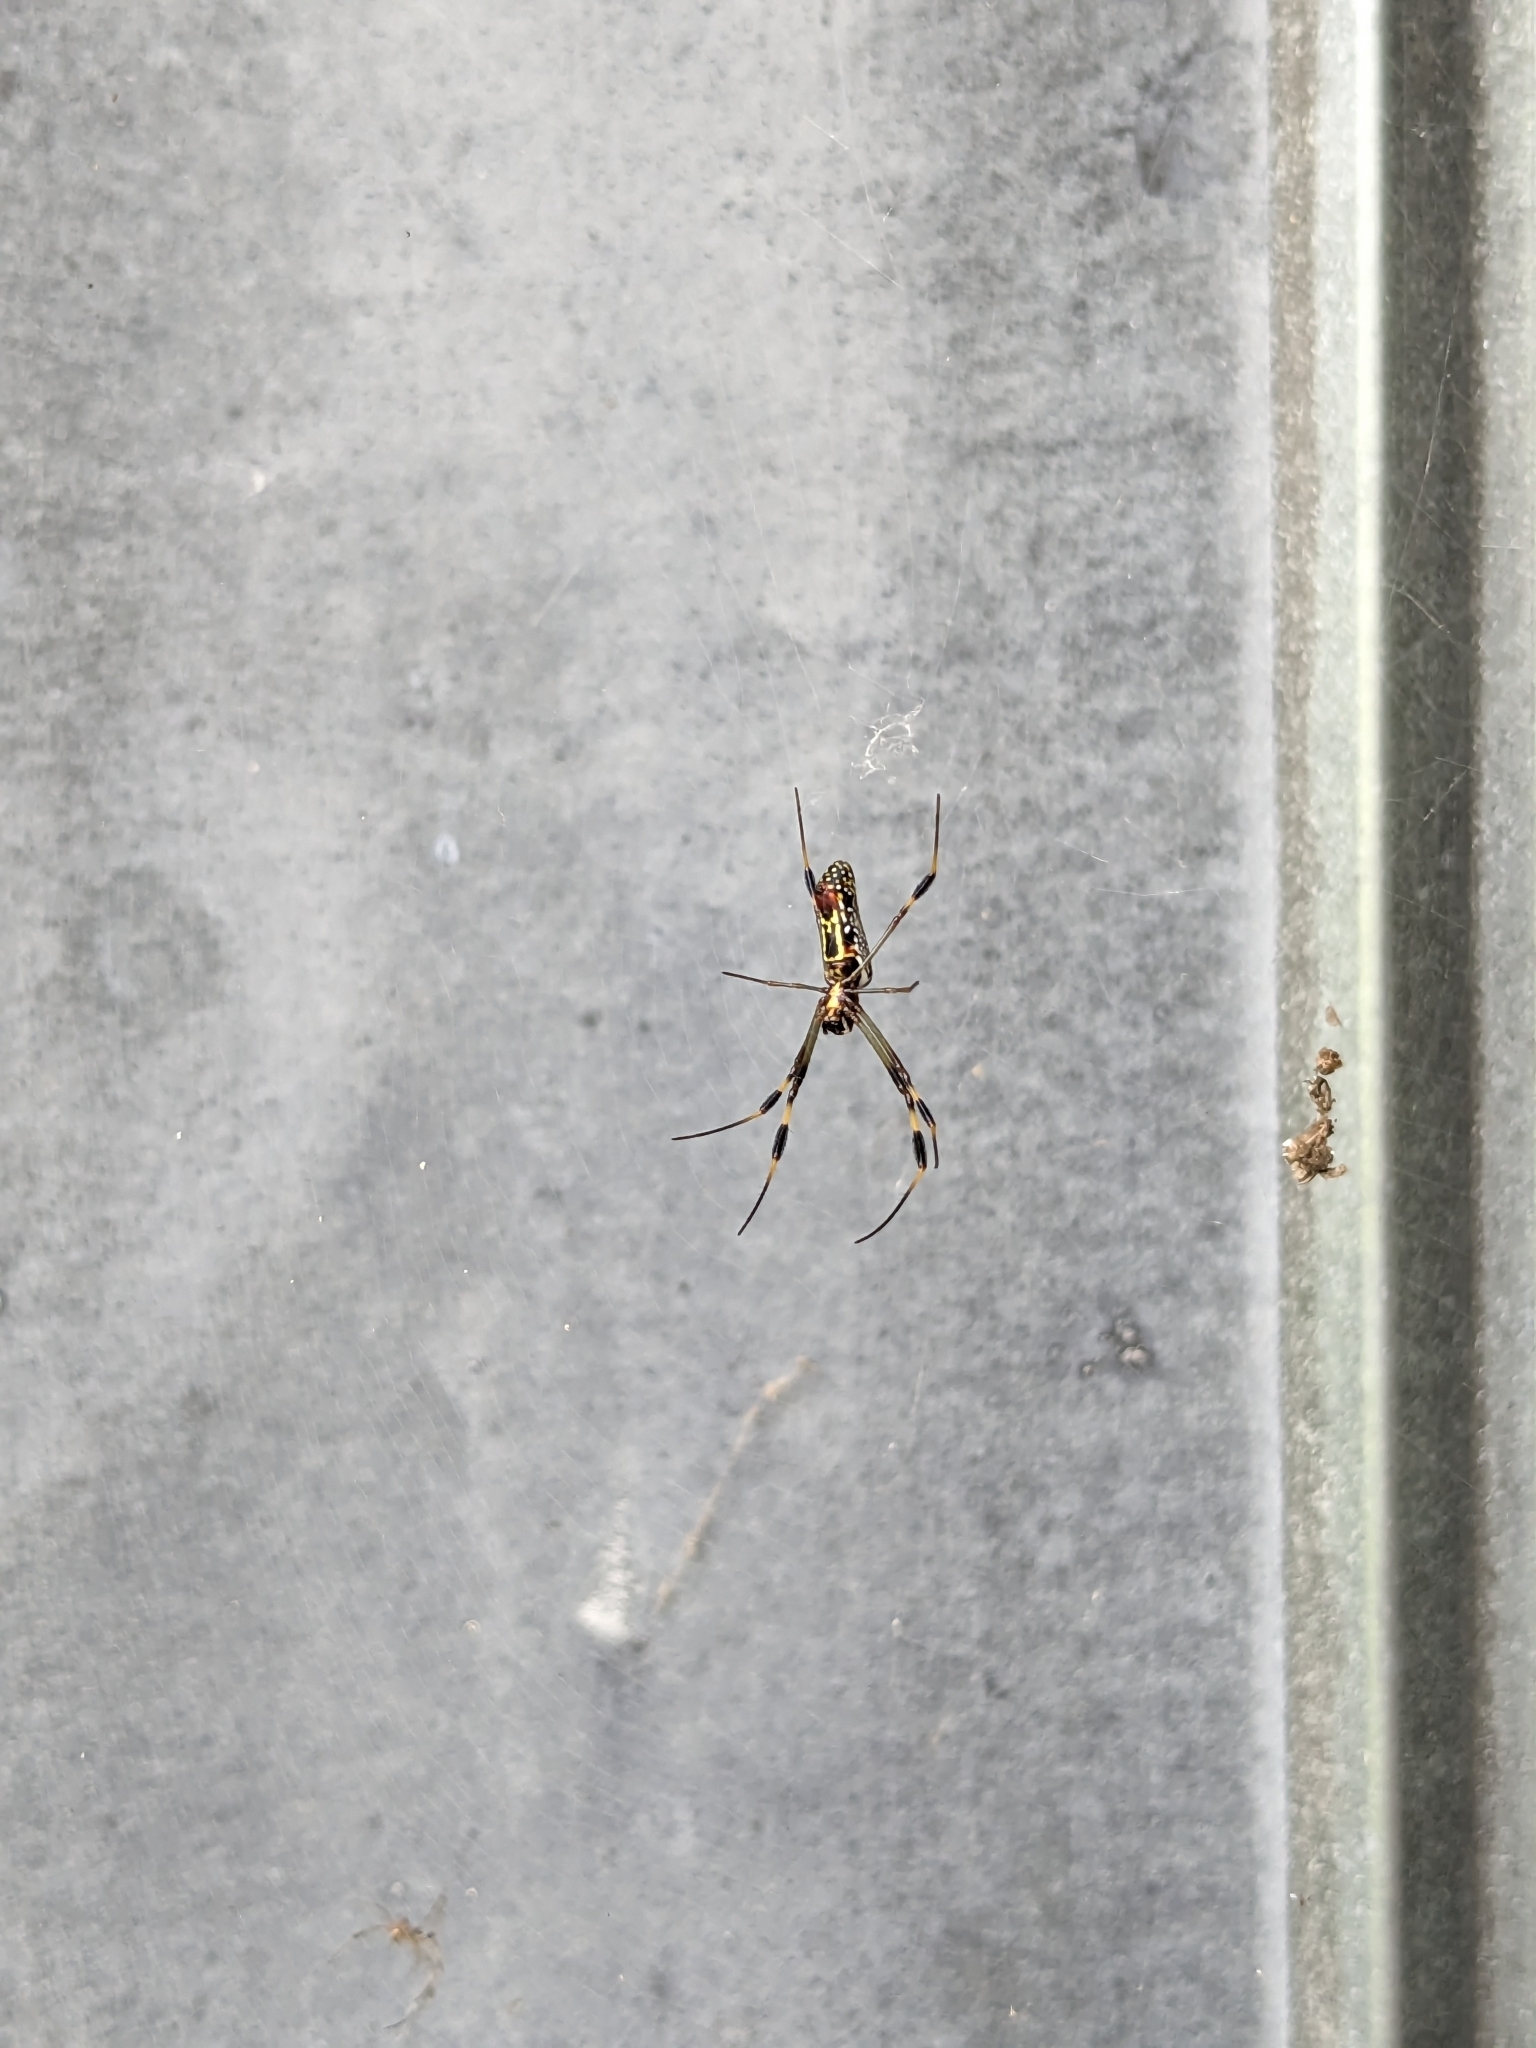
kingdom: Animalia
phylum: Arthropoda
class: Arachnida
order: Araneae
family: Araneidae
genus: Trichonephila
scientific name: Trichonephila clavipes
